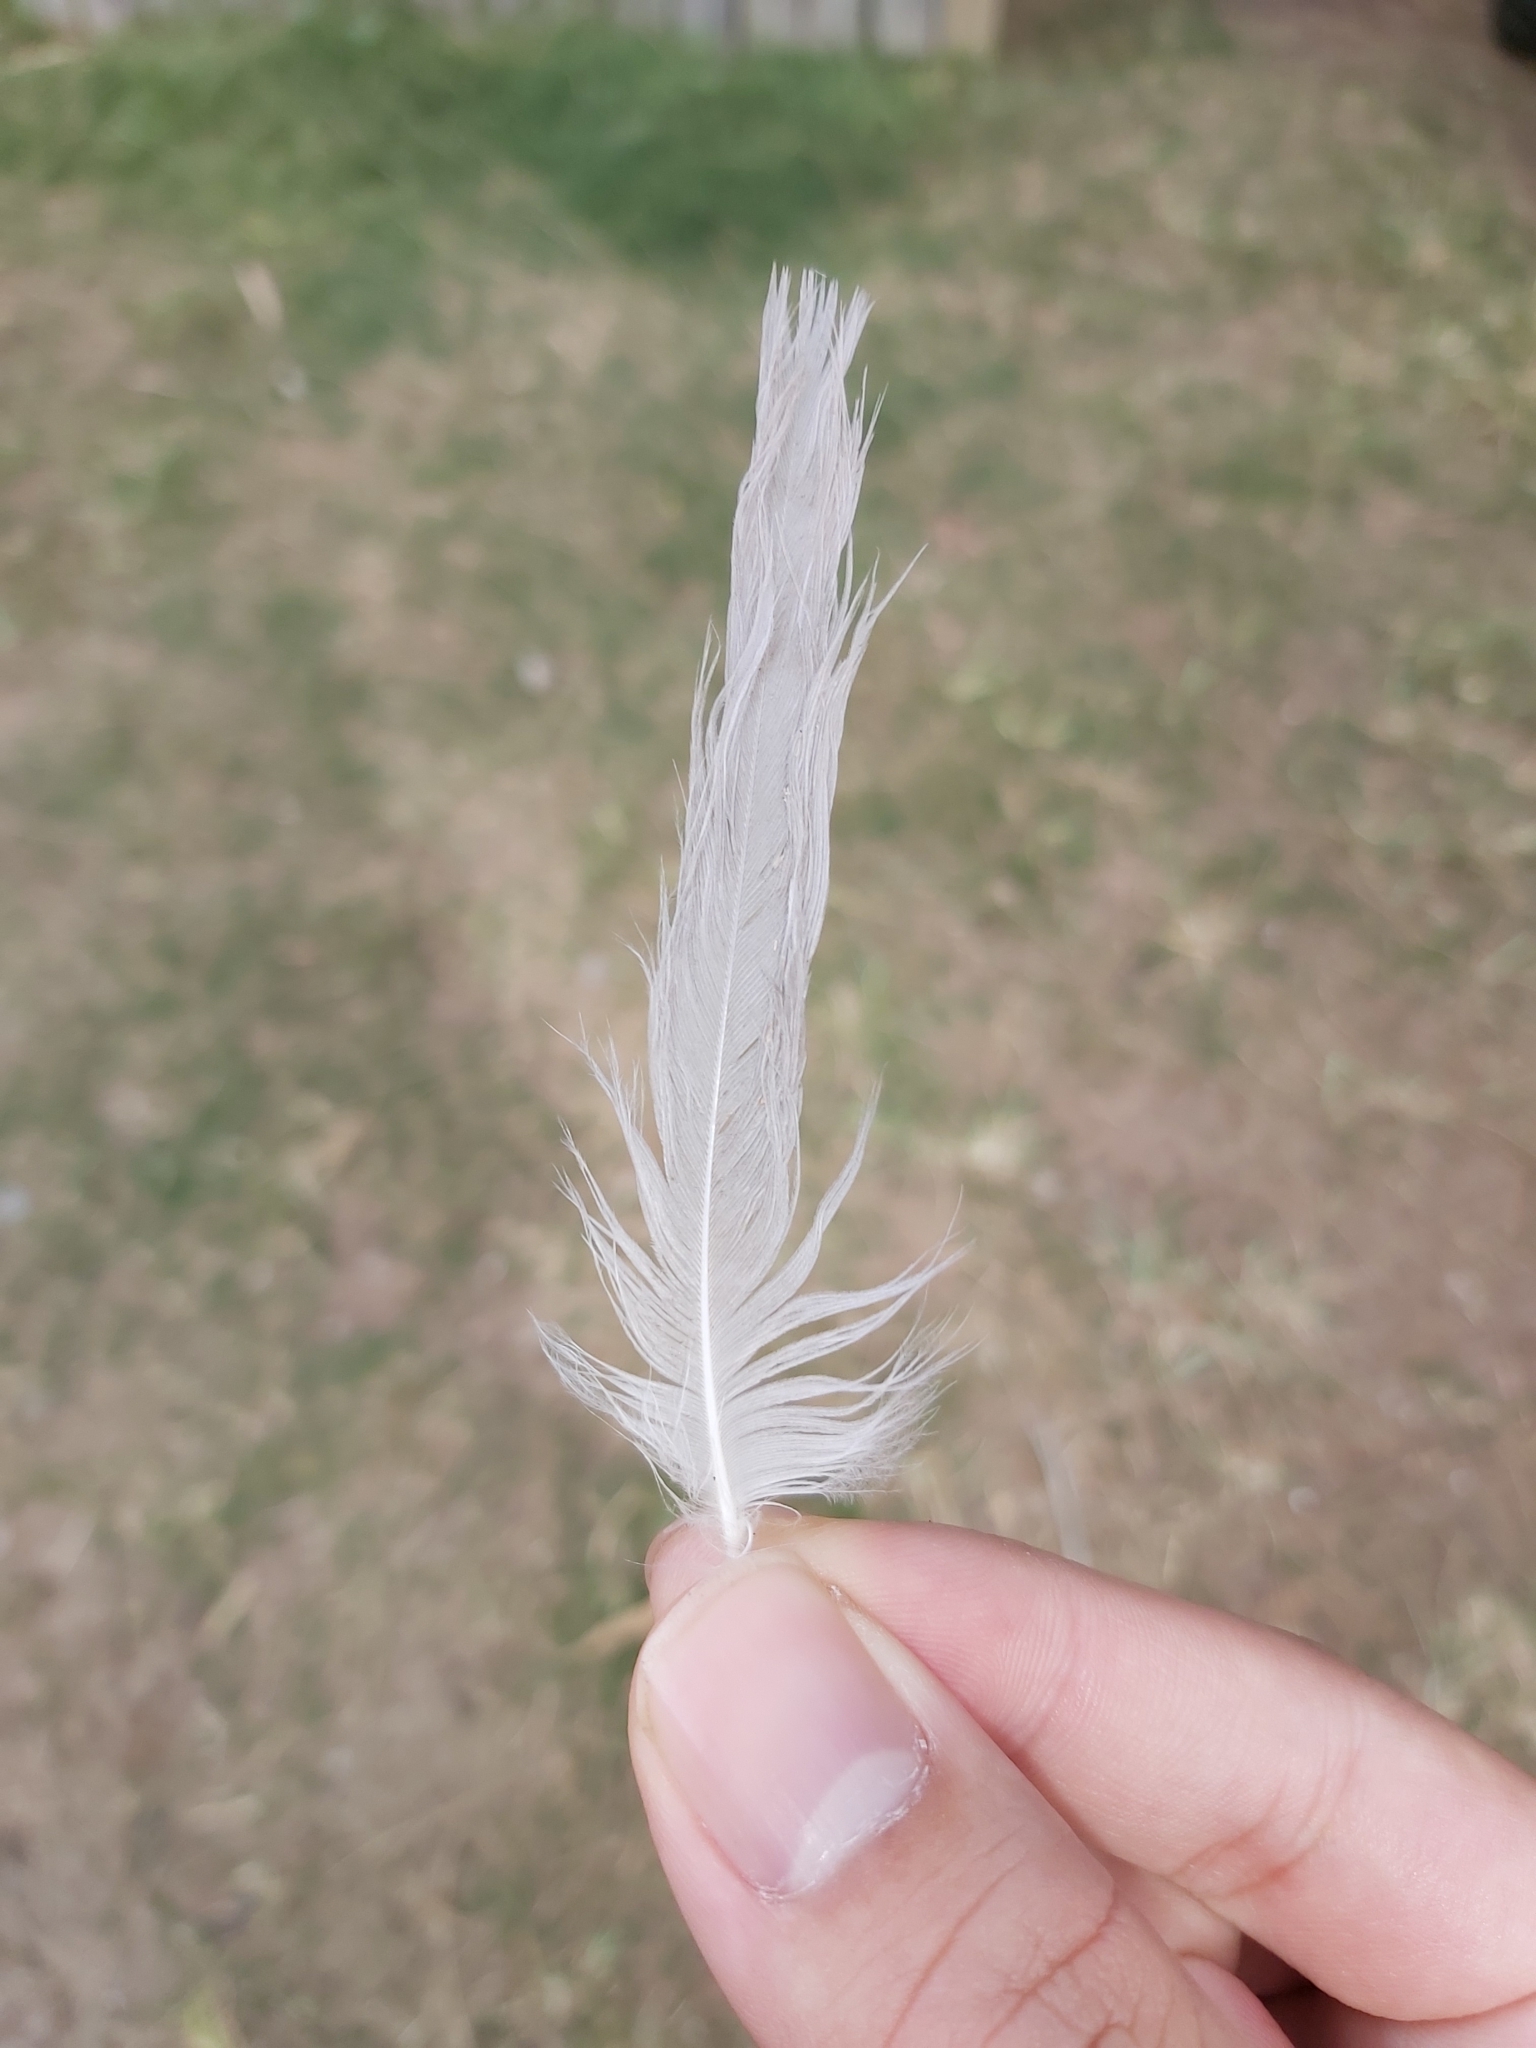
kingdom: Animalia
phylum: Chordata
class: Aves
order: Charadriiformes
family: Laridae
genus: Chroicocephalus
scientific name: Chroicocephalus novaehollandiae
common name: Silver gull
